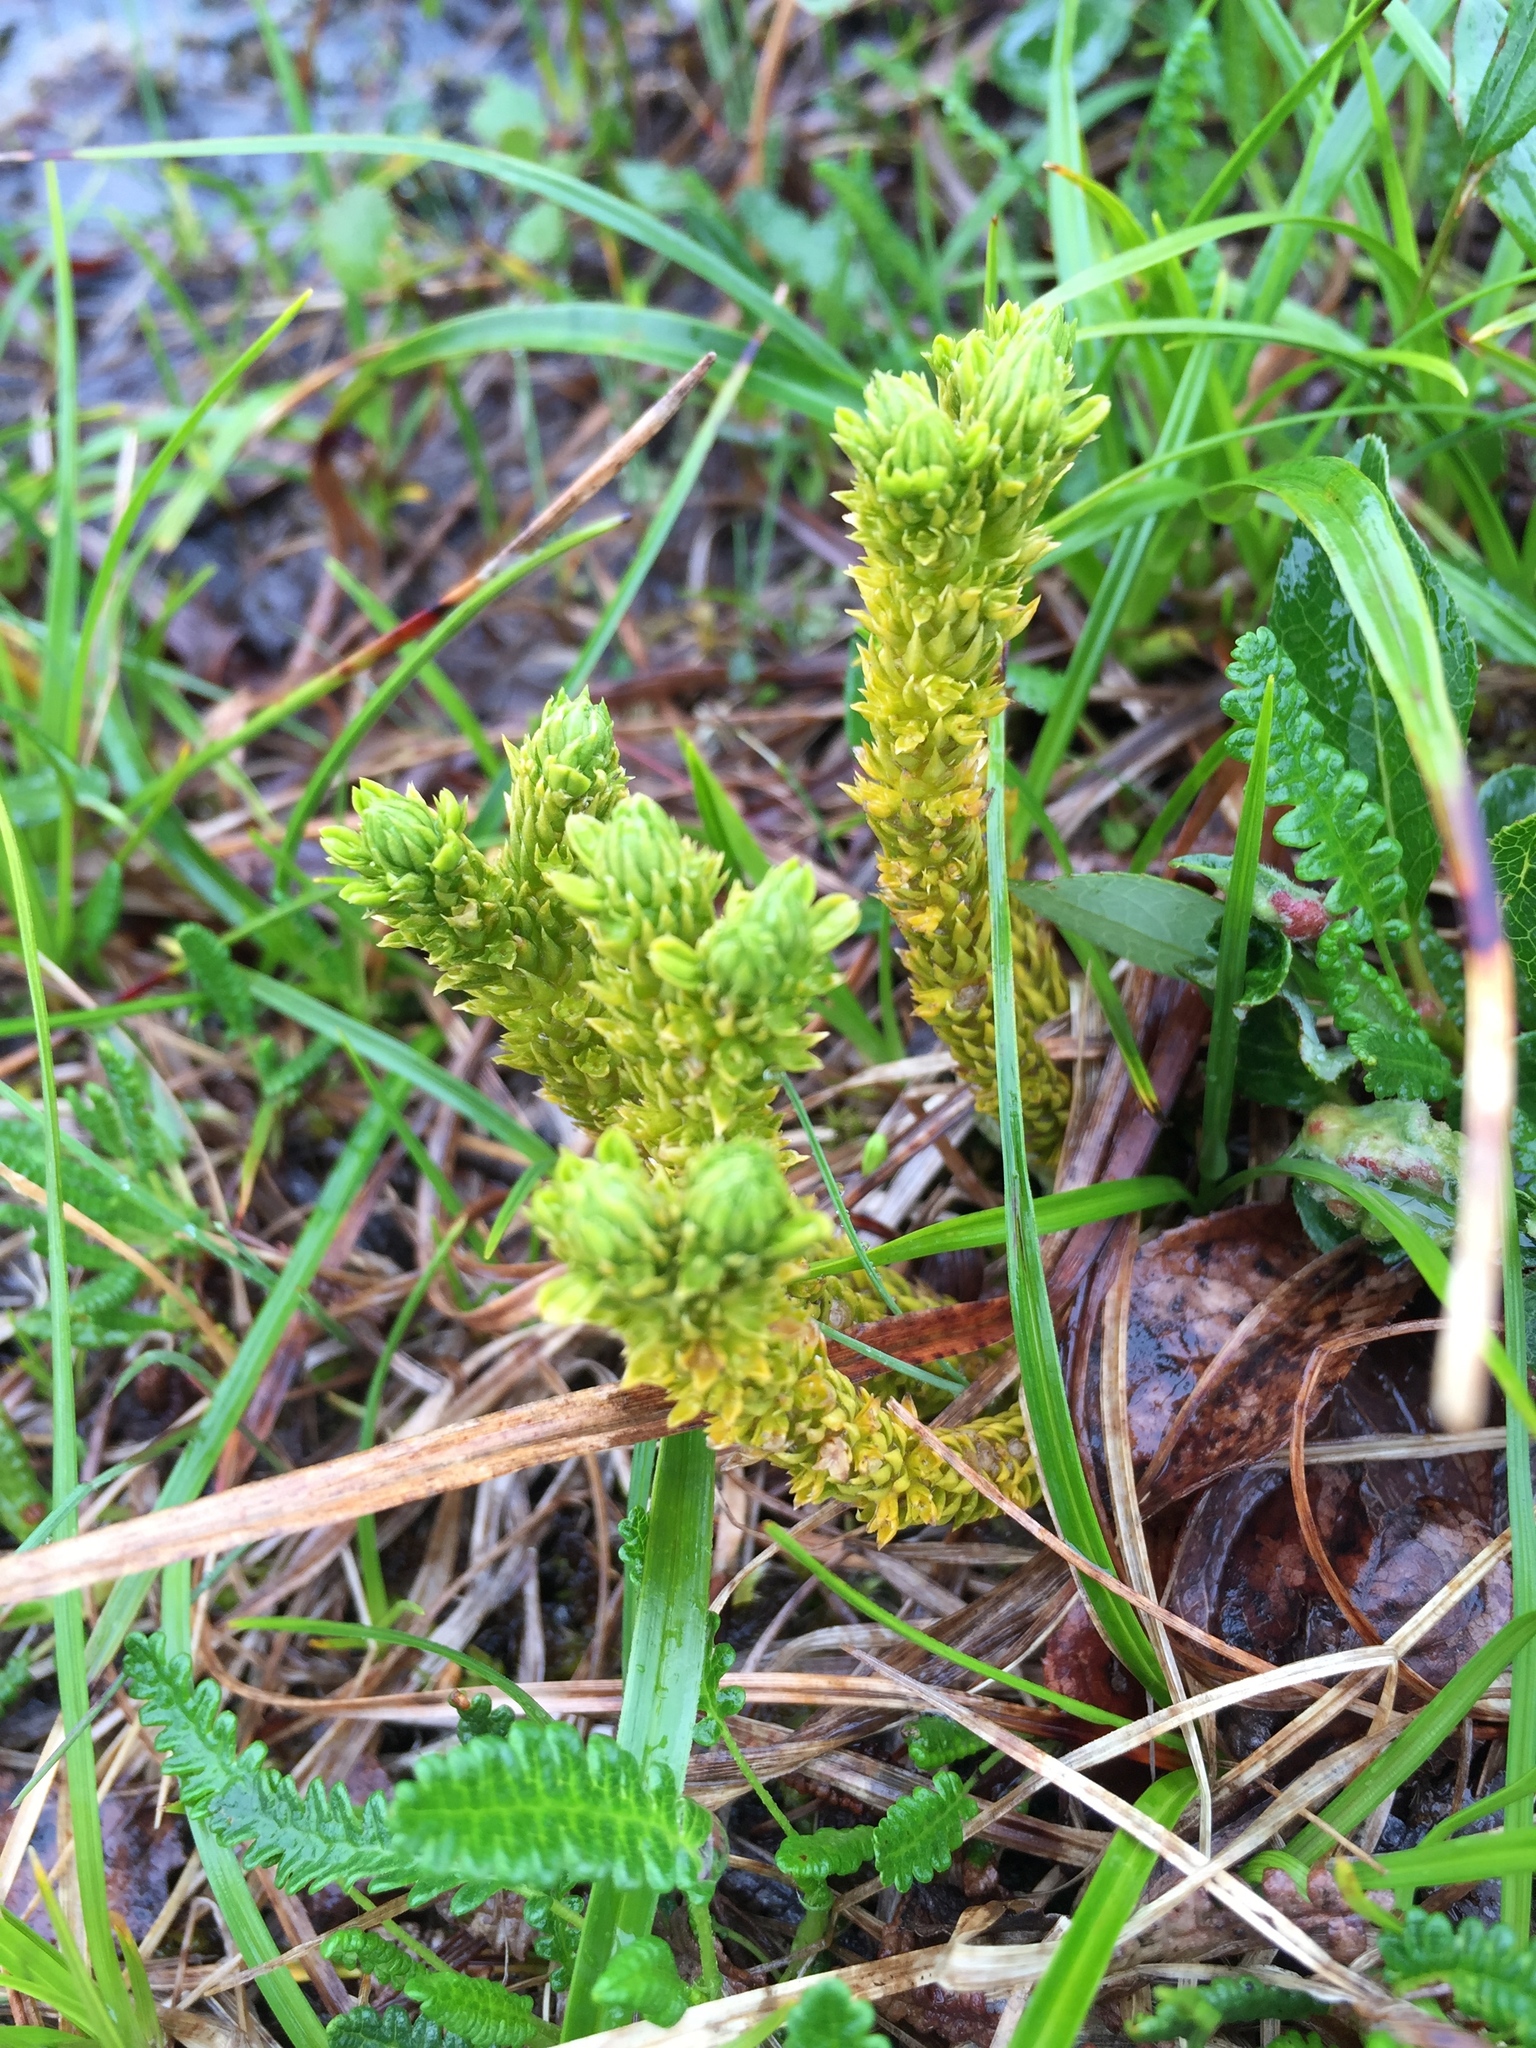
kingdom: Plantae
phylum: Tracheophyta
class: Lycopodiopsida
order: Lycopodiales
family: Lycopodiaceae
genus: Huperzia
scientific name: Huperzia continentalis
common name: Continental firmoss
